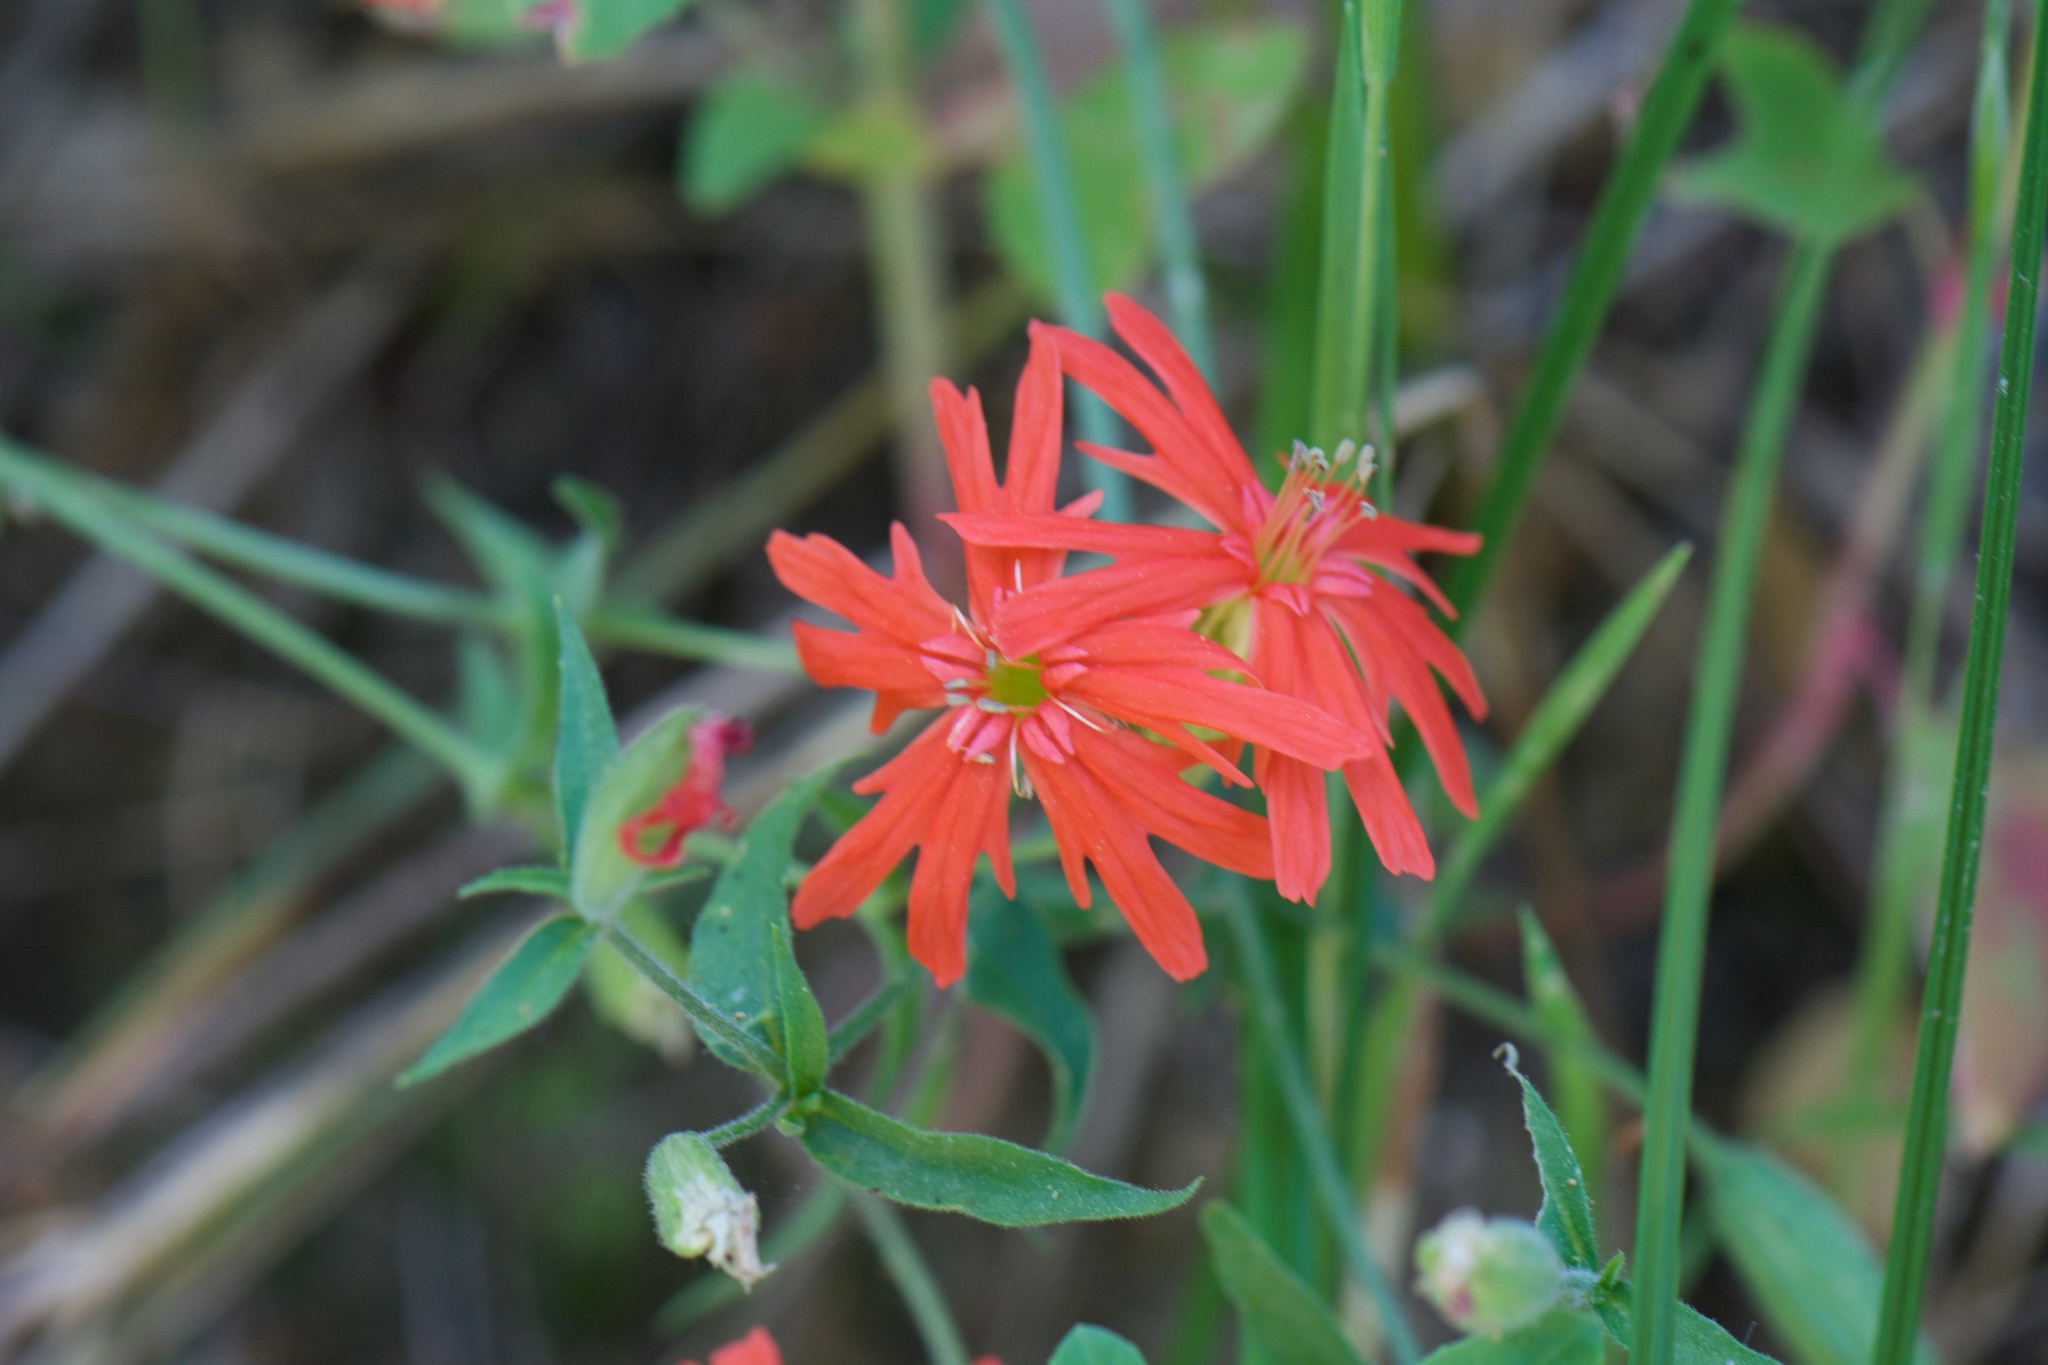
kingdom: Plantae
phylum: Tracheophyta
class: Magnoliopsida
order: Caryophyllales
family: Caryophyllaceae
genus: Silene
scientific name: Silene laciniata
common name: Indian-pink
